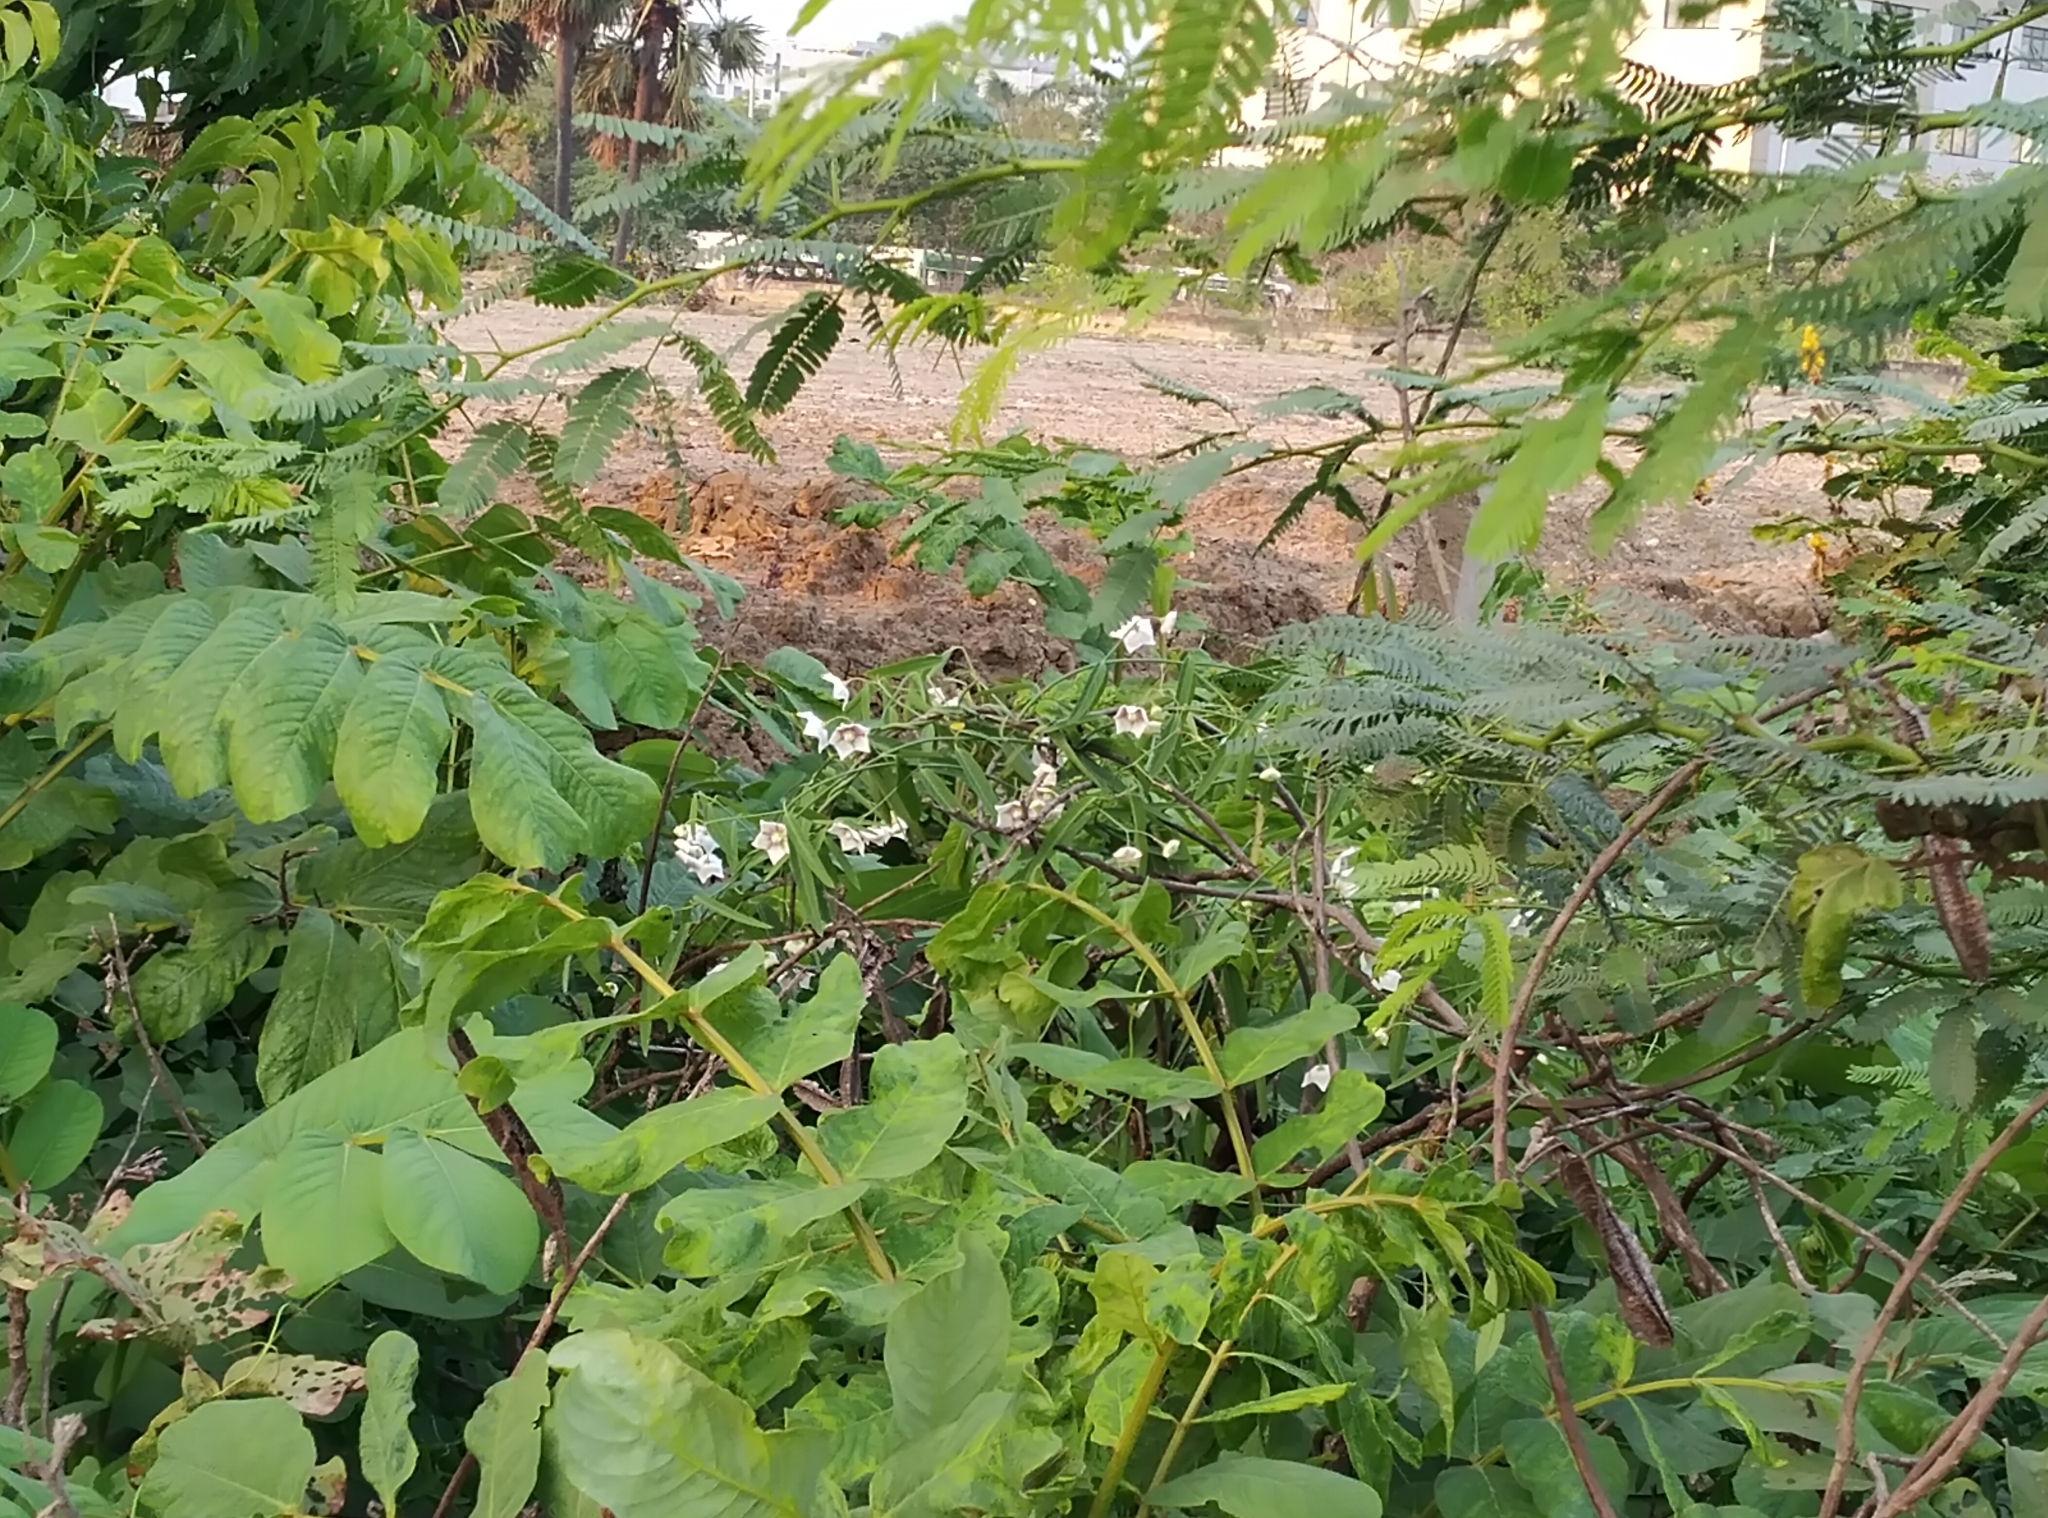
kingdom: Plantae
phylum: Tracheophyta
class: Magnoliopsida
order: Gentianales
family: Apocynaceae
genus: Oxystelma
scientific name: Oxystelma wallichii
